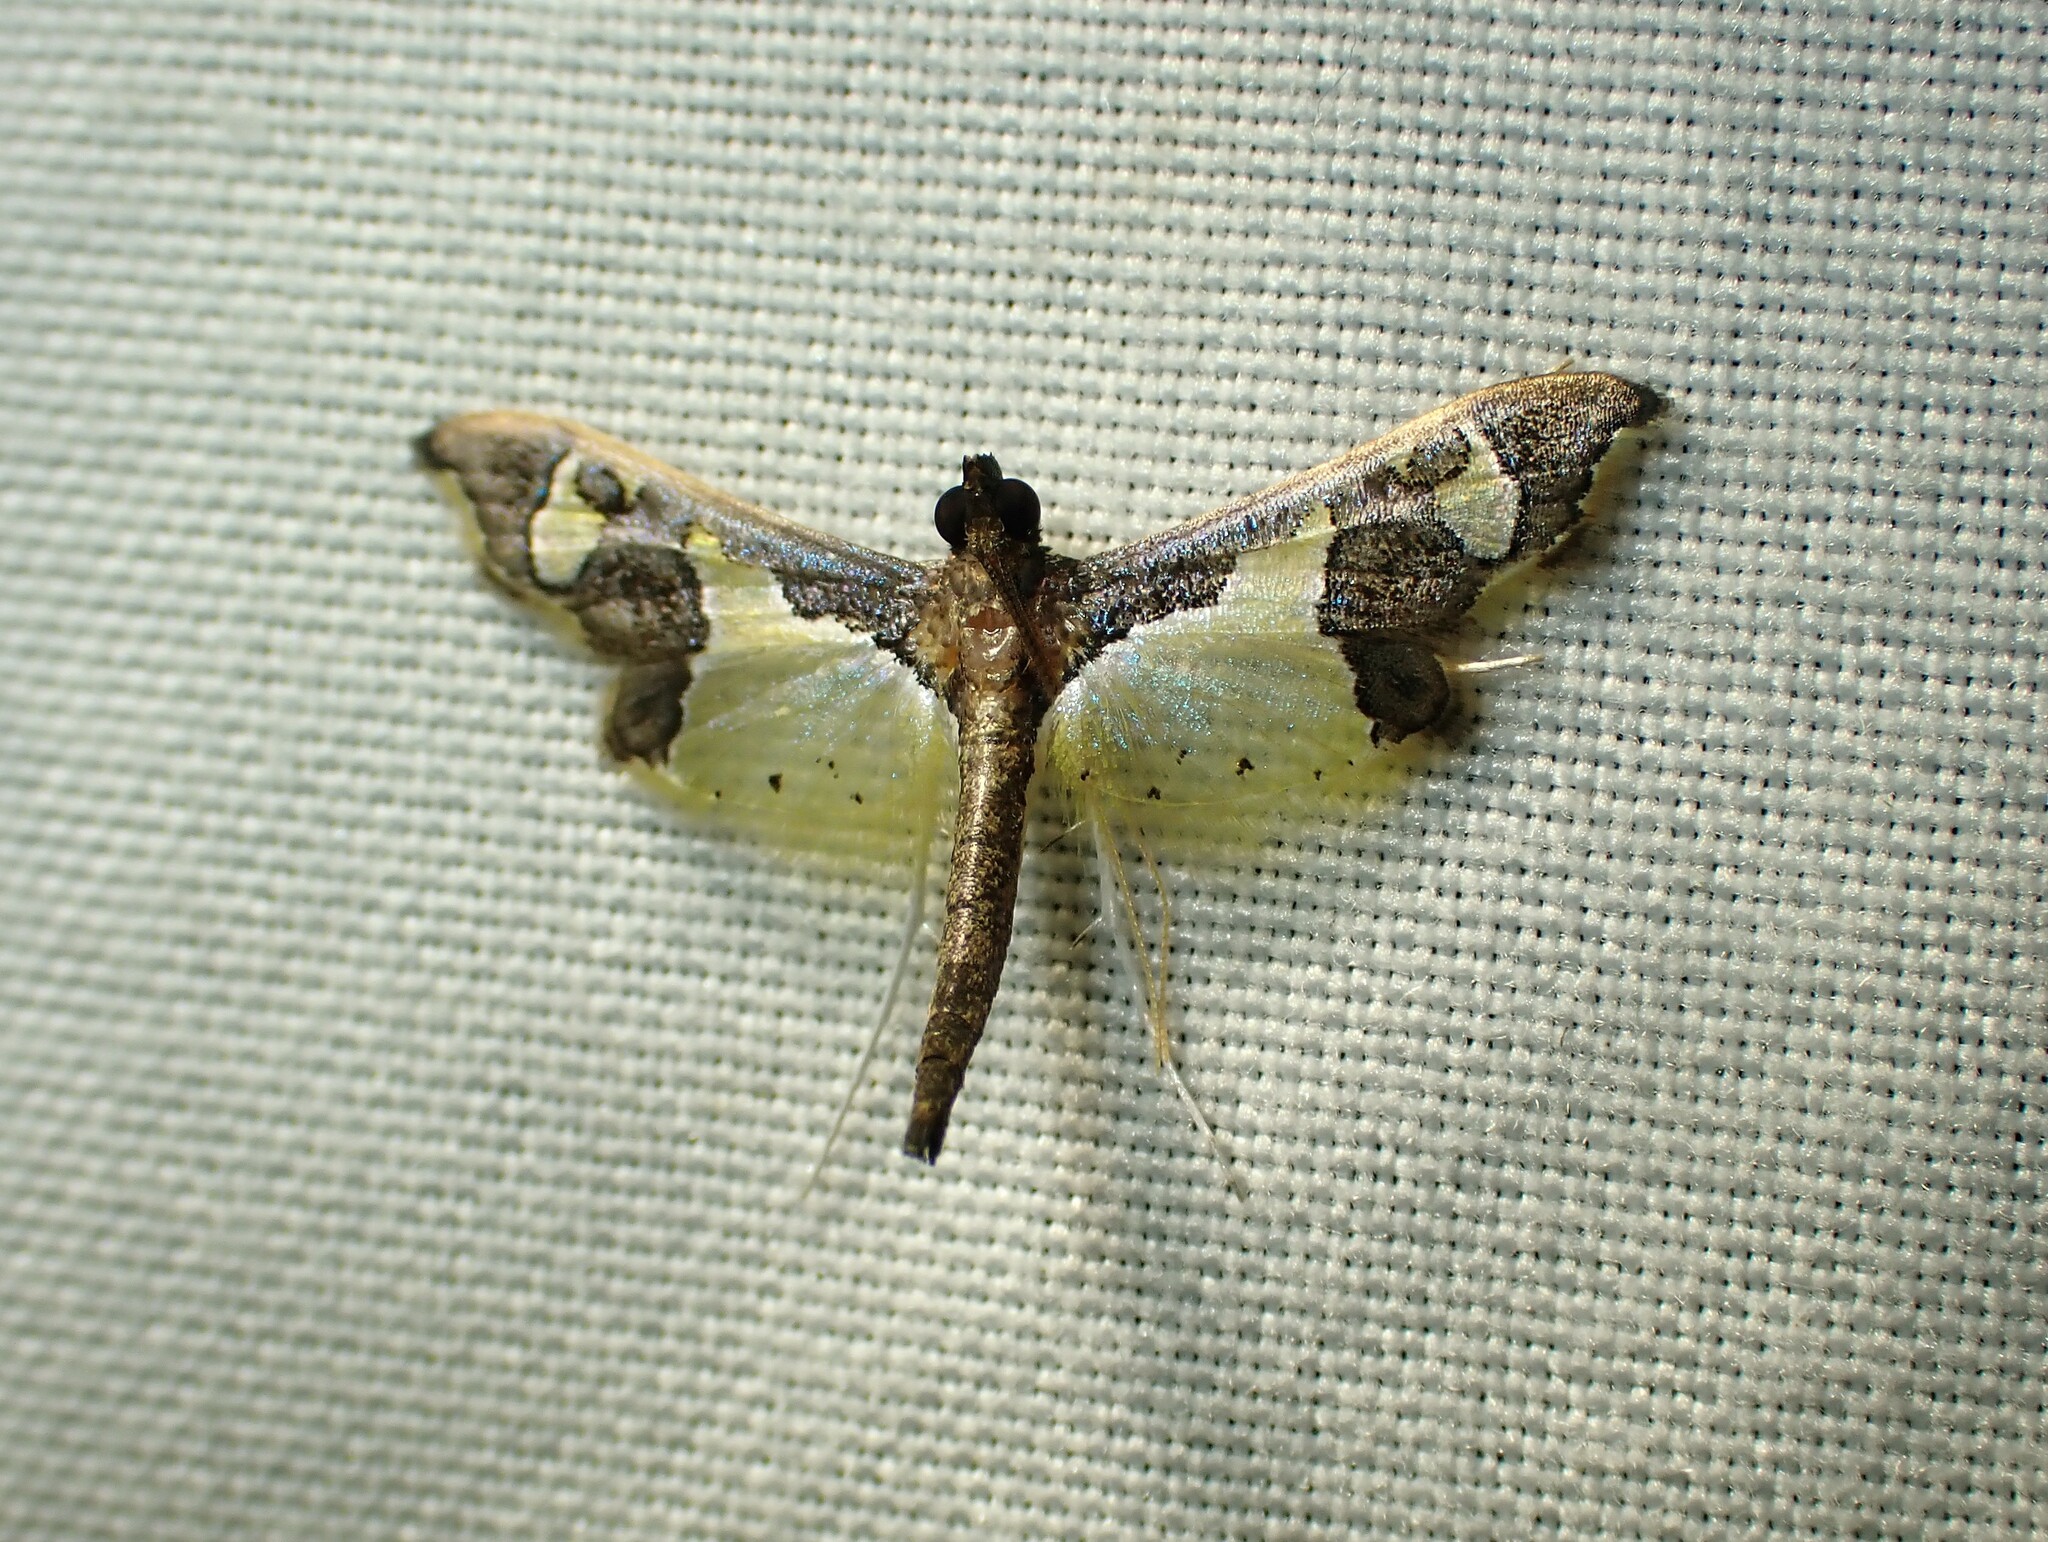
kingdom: Animalia
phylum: Arthropoda
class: Insecta
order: Lepidoptera
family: Crambidae
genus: Gonocausta
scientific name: Gonocausta zephyralis
